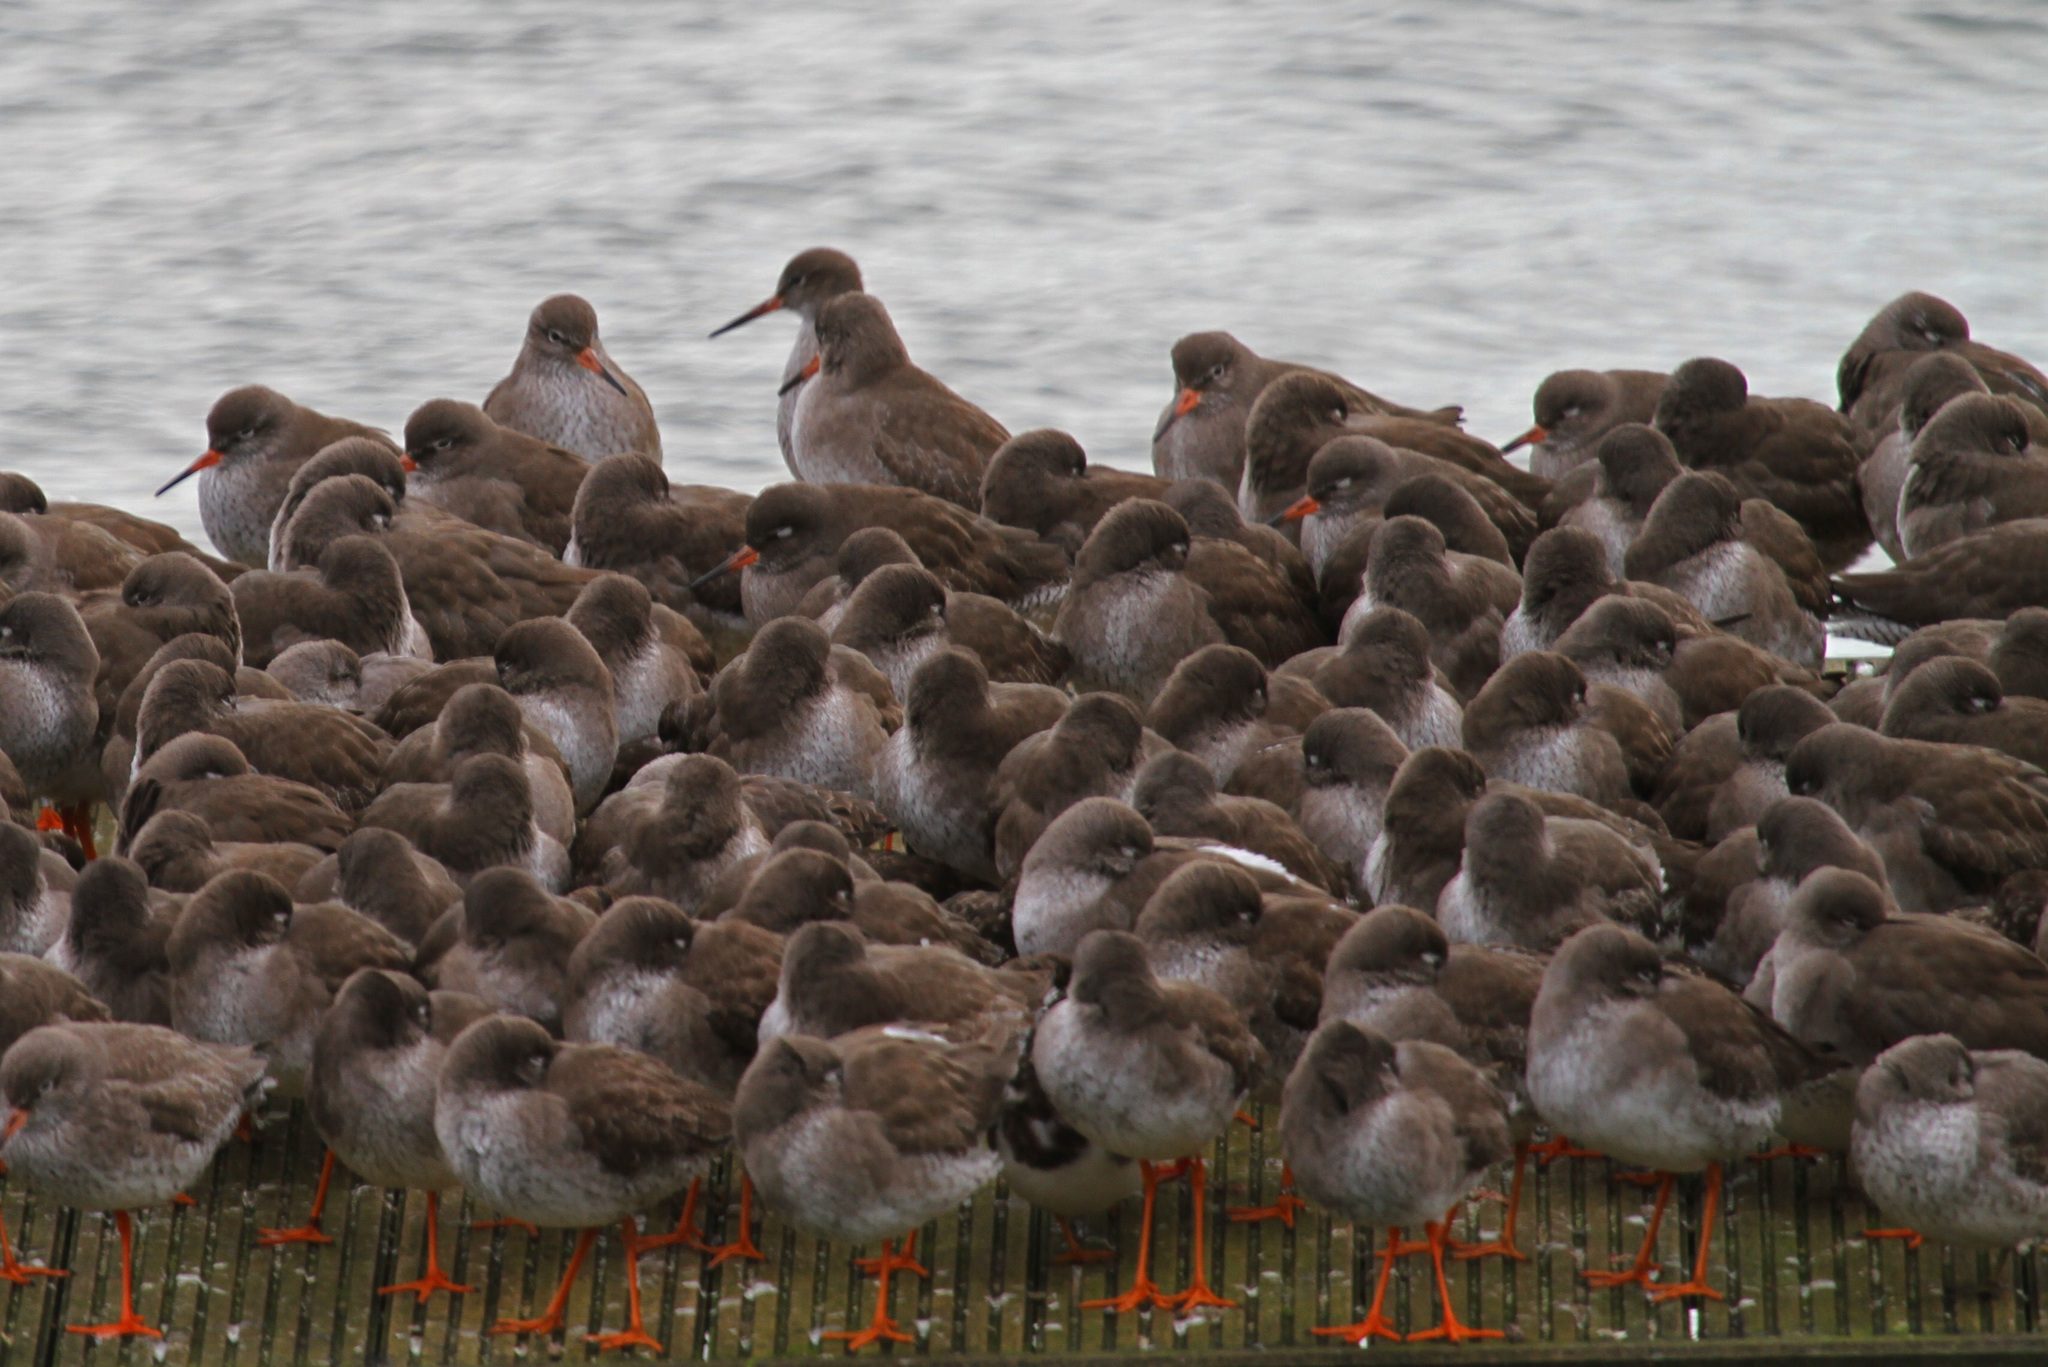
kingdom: Animalia
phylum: Chordata
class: Aves
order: Charadriiformes
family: Scolopacidae
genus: Tringa
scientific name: Tringa totanus
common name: Common redshank
